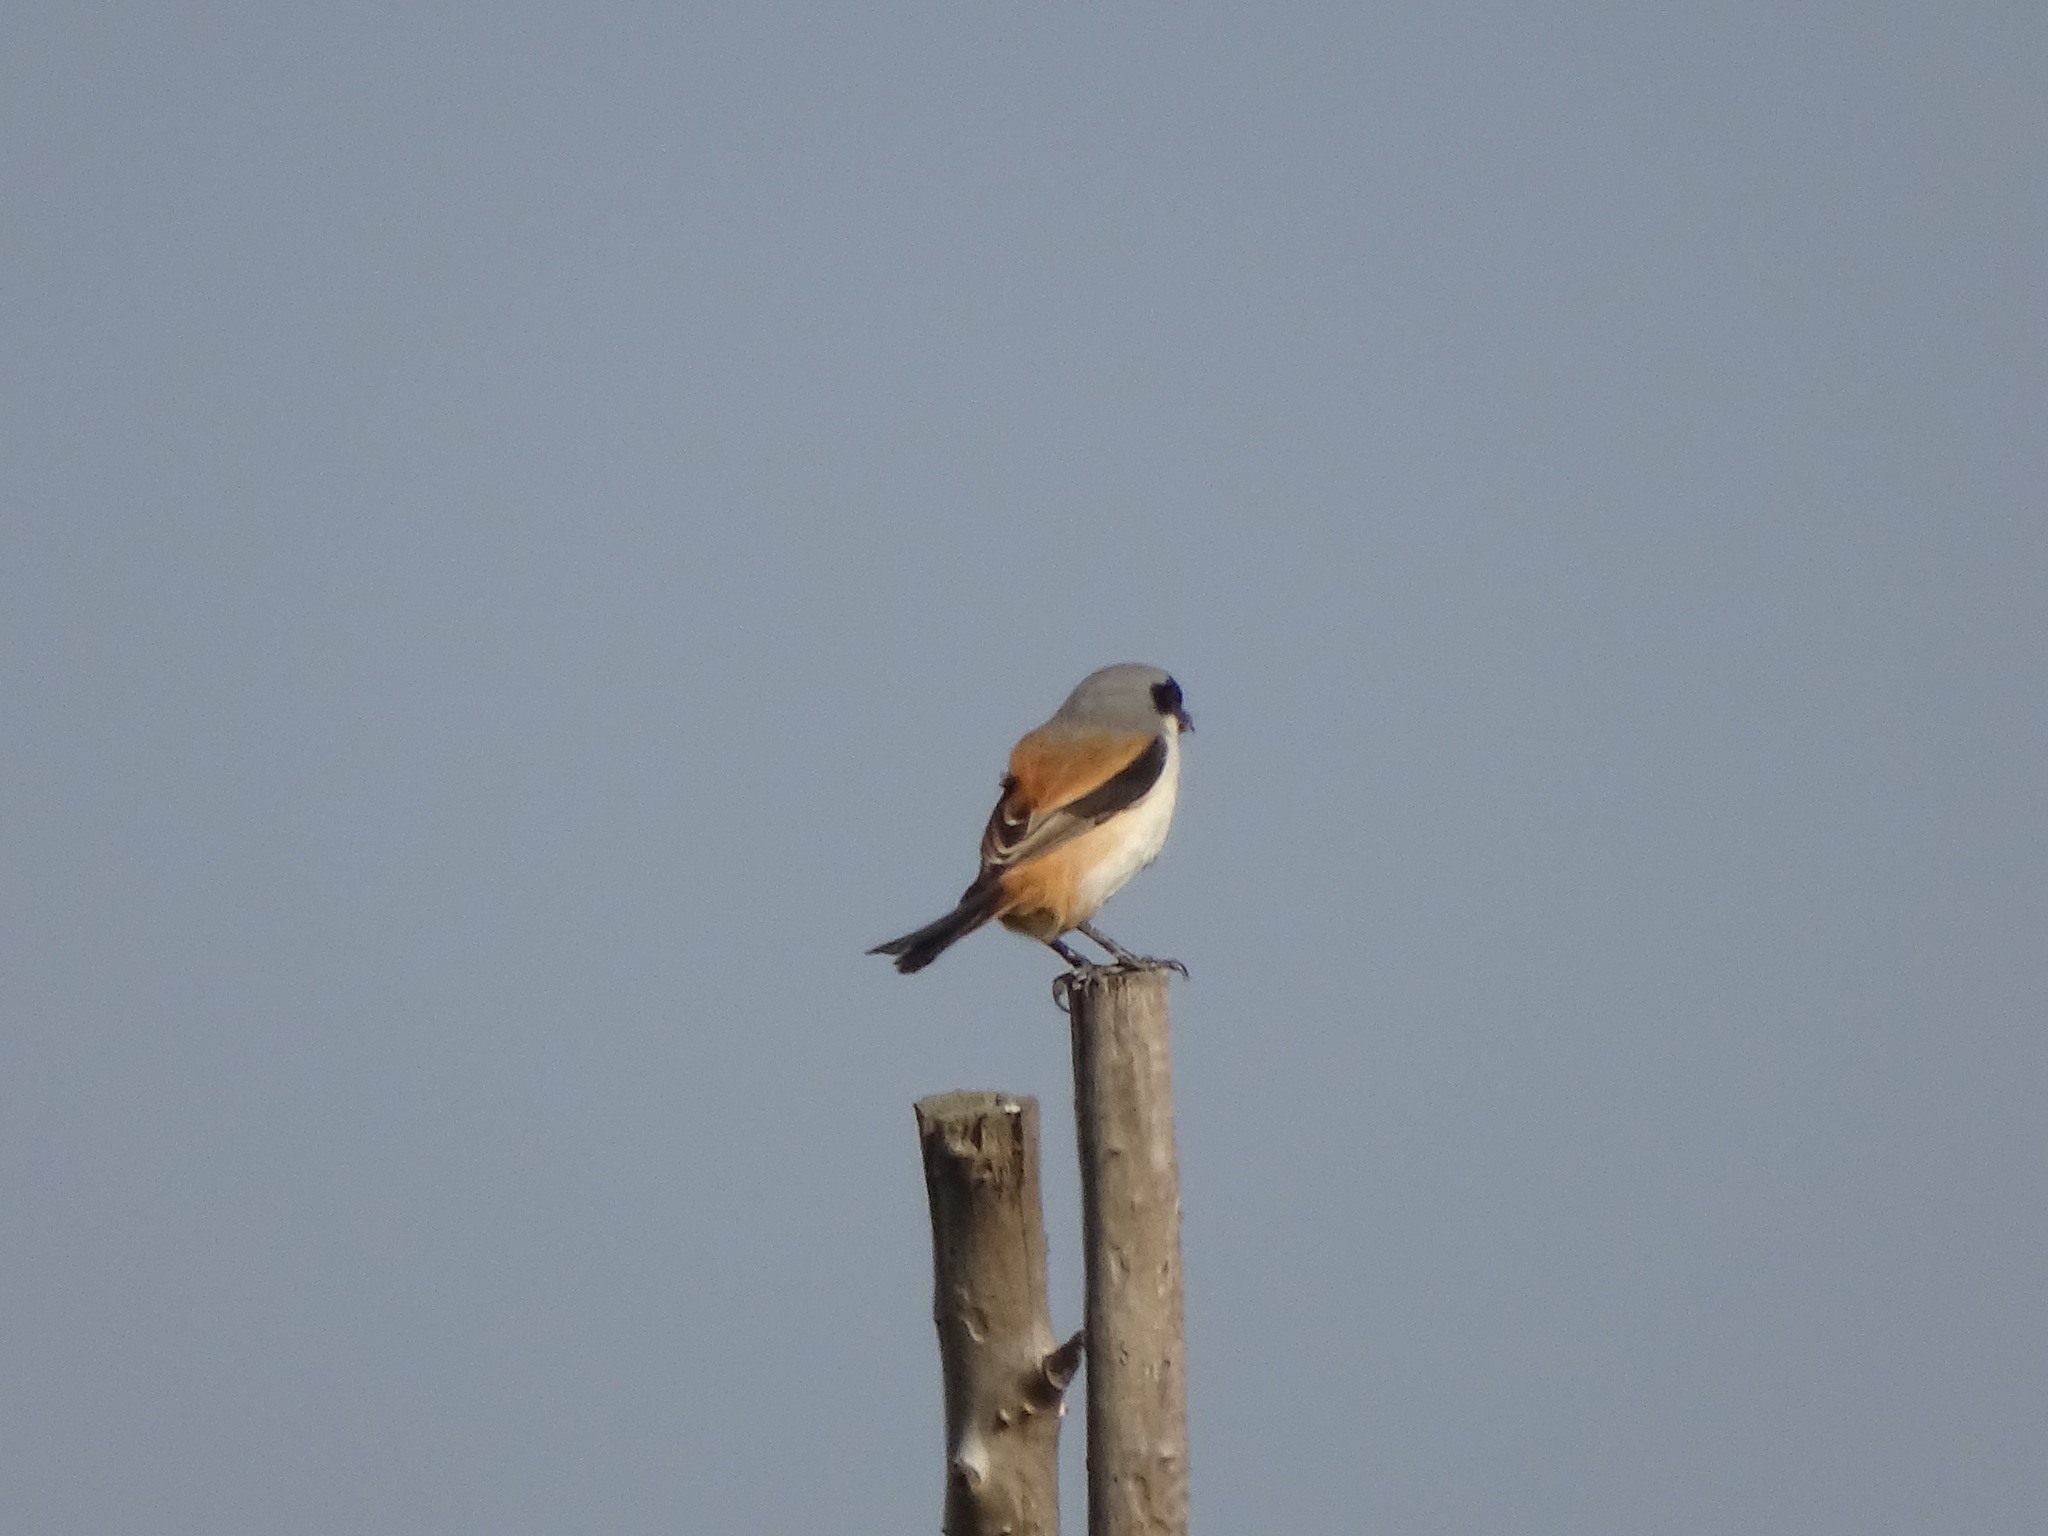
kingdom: Animalia
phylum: Chordata
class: Aves
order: Passeriformes
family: Laniidae
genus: Lanius
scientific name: Lanius schach
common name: Long-tailed shrike
